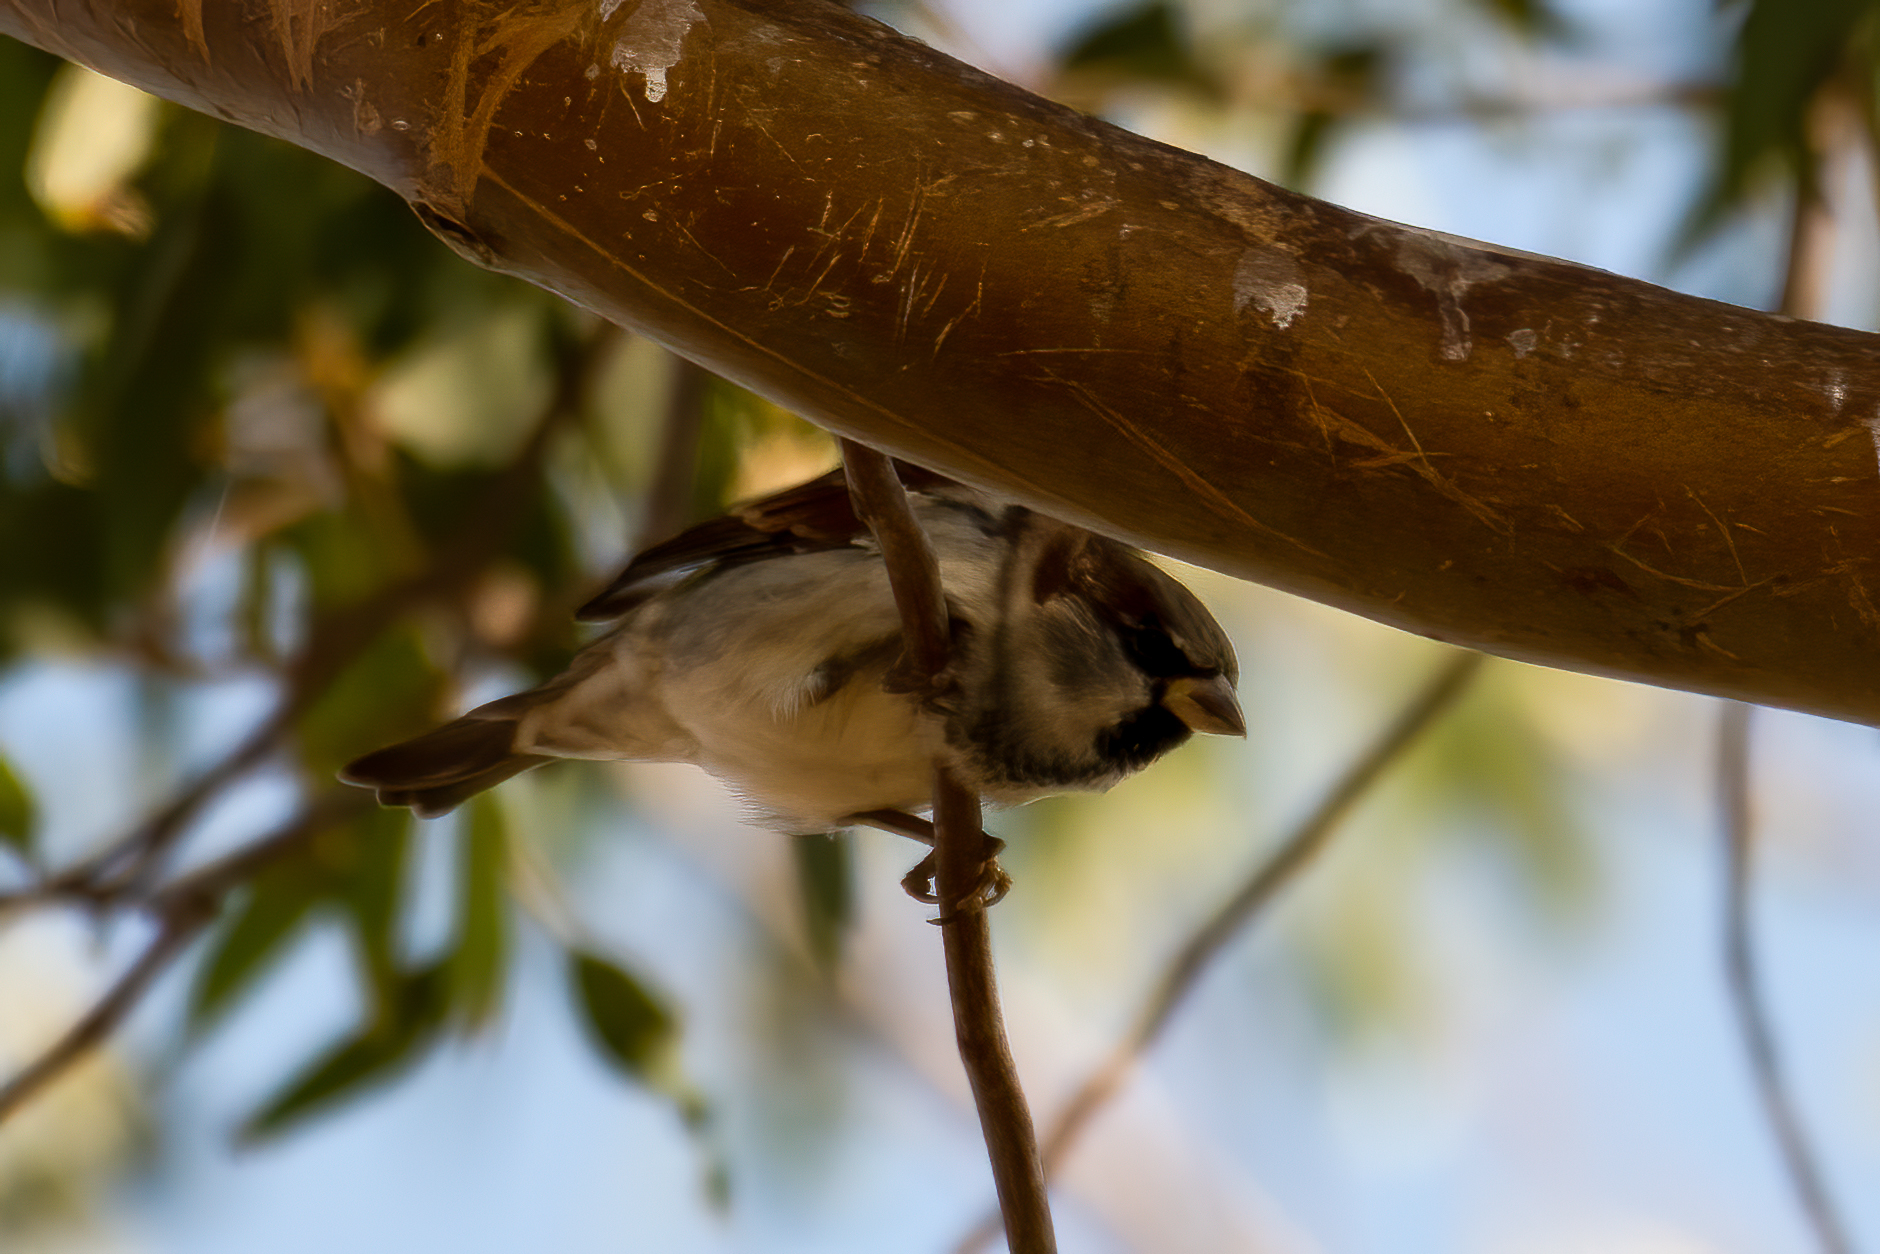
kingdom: Animalia
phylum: Chordata
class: Aves
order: Passeriformes
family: Passeridae
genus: Passer
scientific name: Passer domesticus
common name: House sparrow
